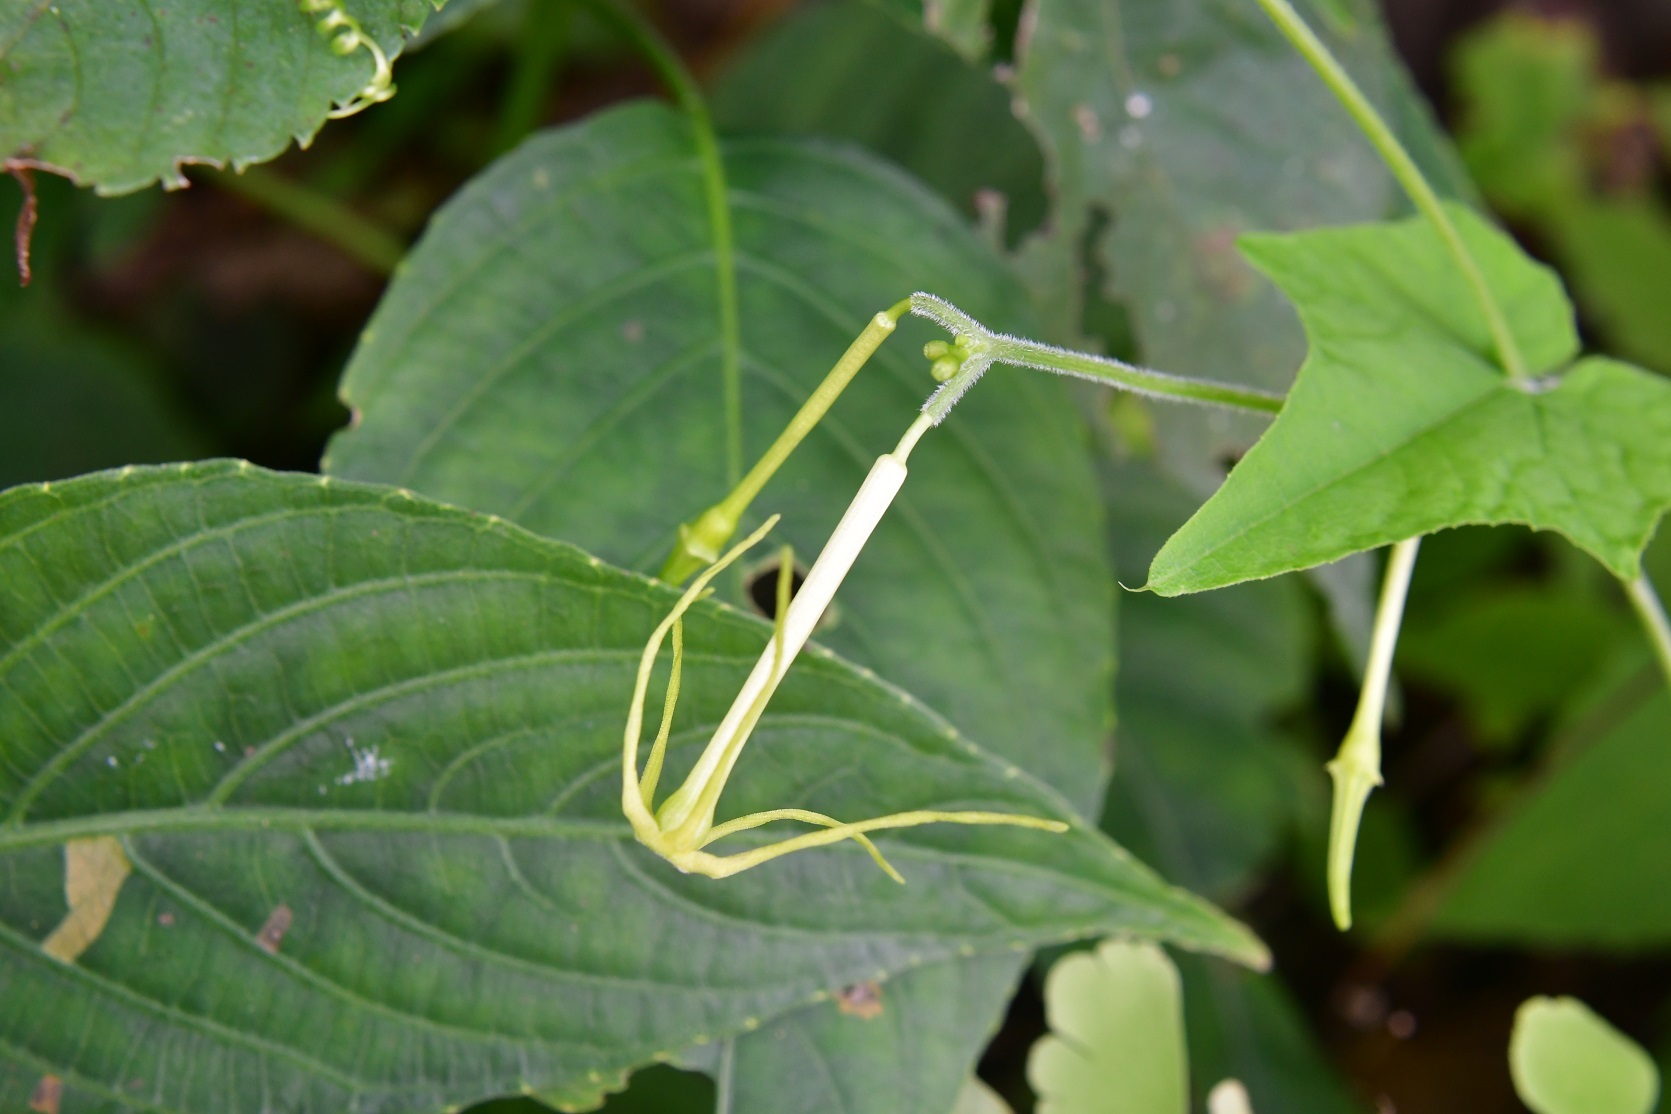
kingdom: Plantae
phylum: Tracheophyta
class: Magnoliopsida
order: Cucurbitales
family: Cucurbitaceae
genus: Cyclanthera
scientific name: Cyclanthera carthagenensis
